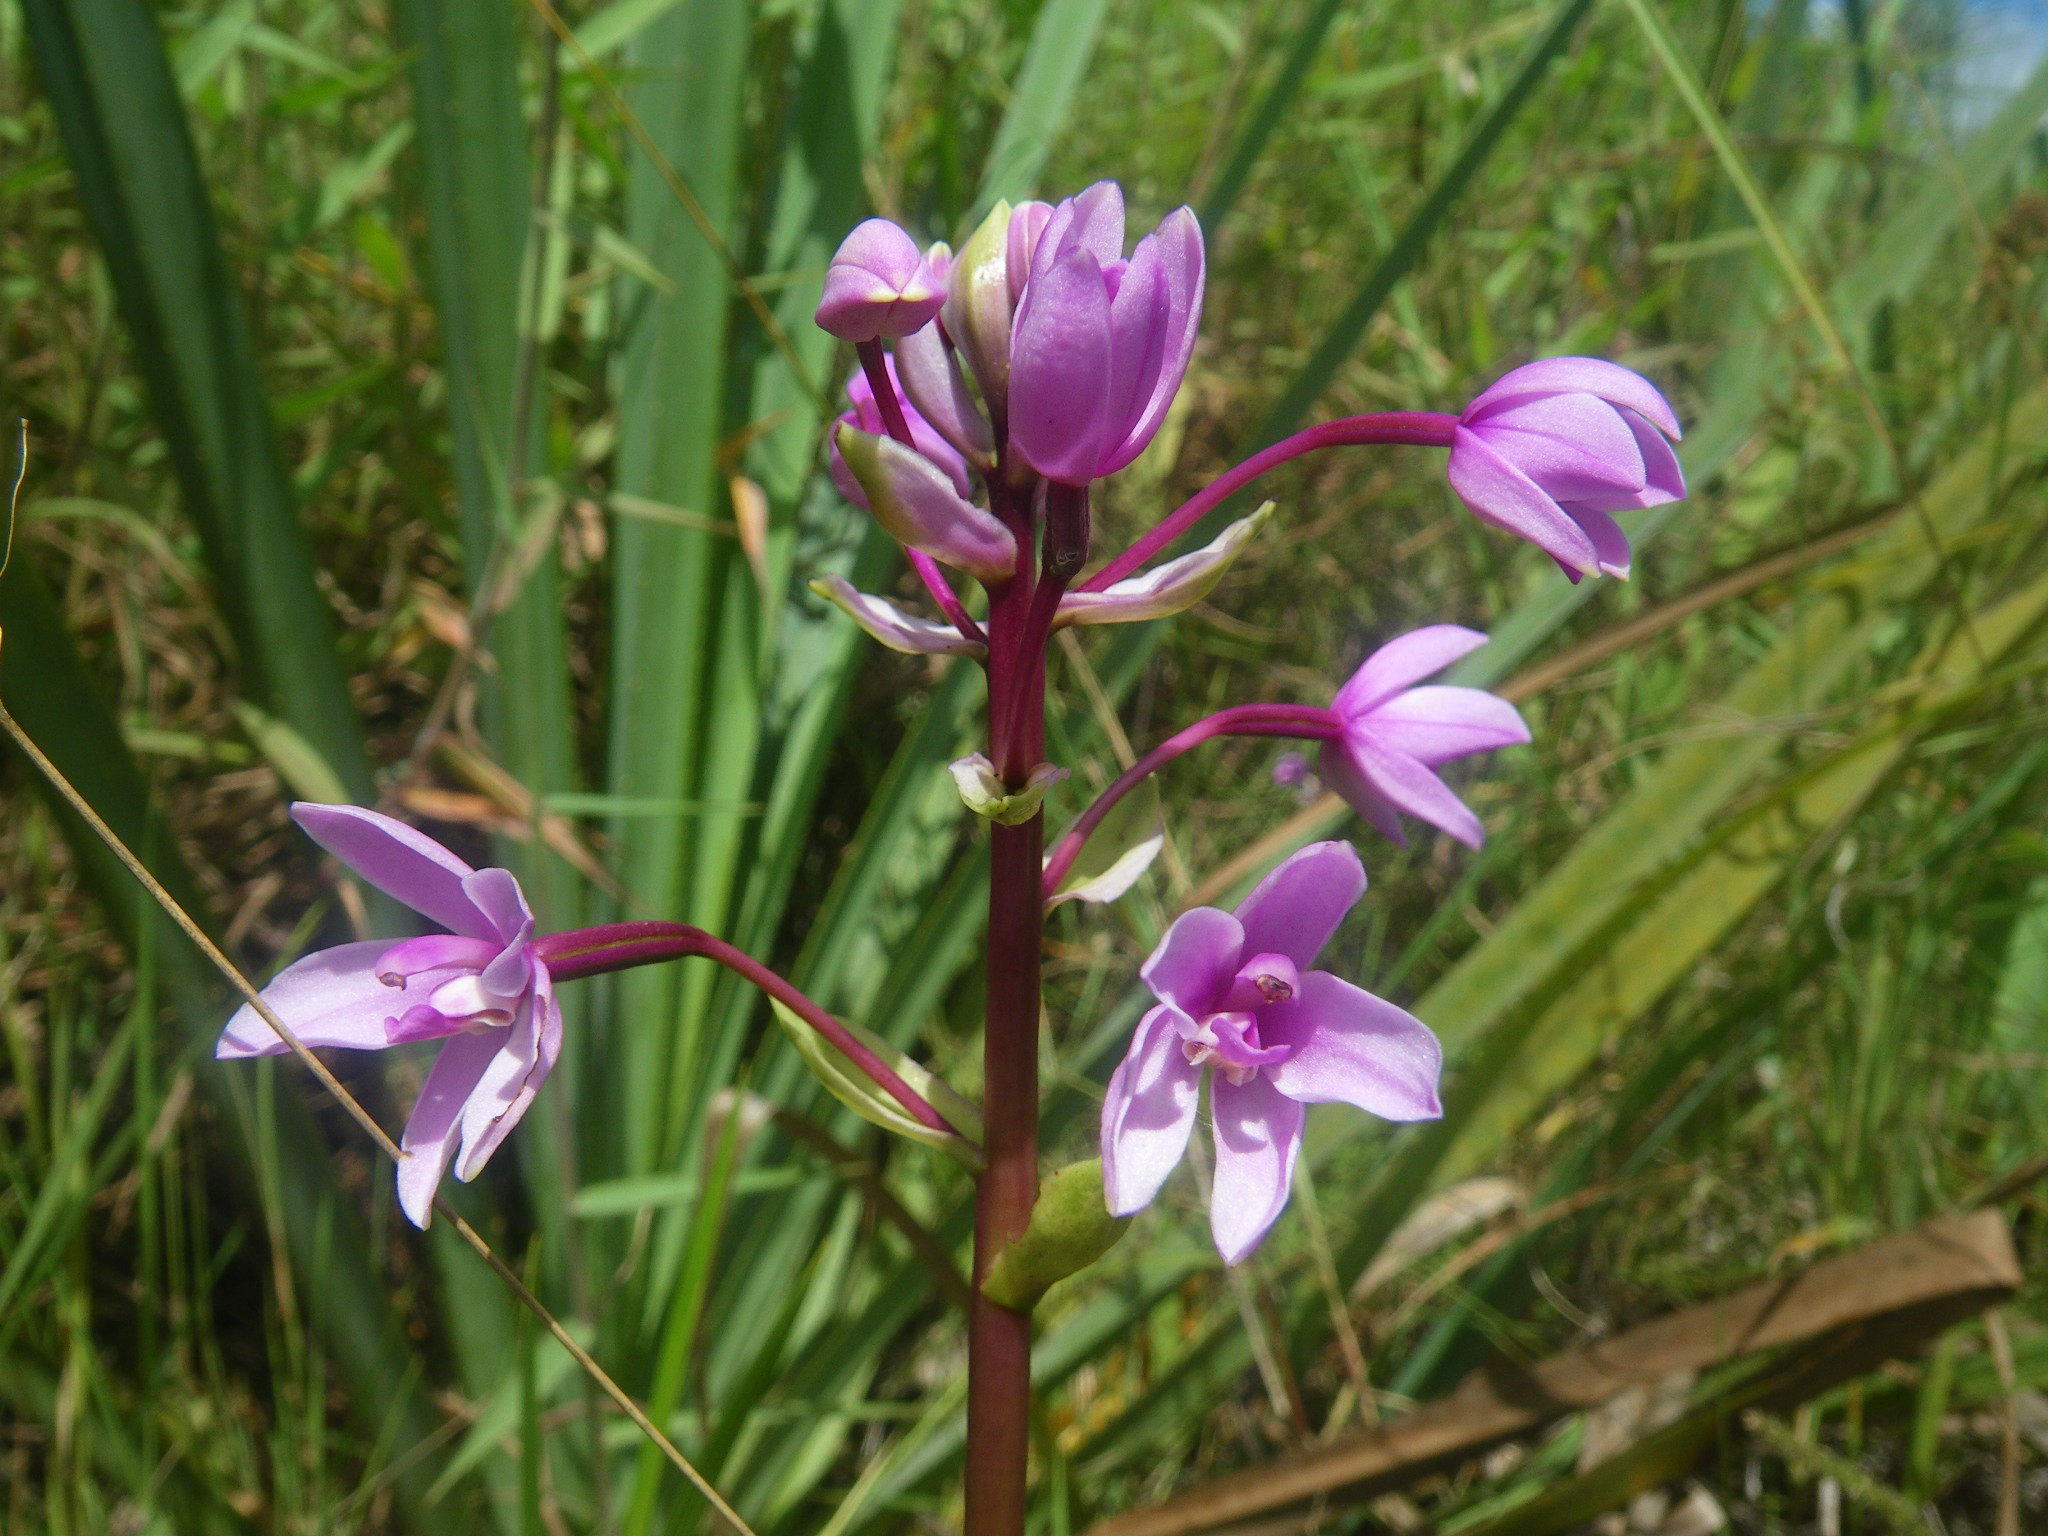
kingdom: Plantae
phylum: Tracheophyta
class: Liliopsida
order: Asparagales
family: Orchidaceae
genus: Spathoglottis
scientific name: Spathoglottis paulinae
